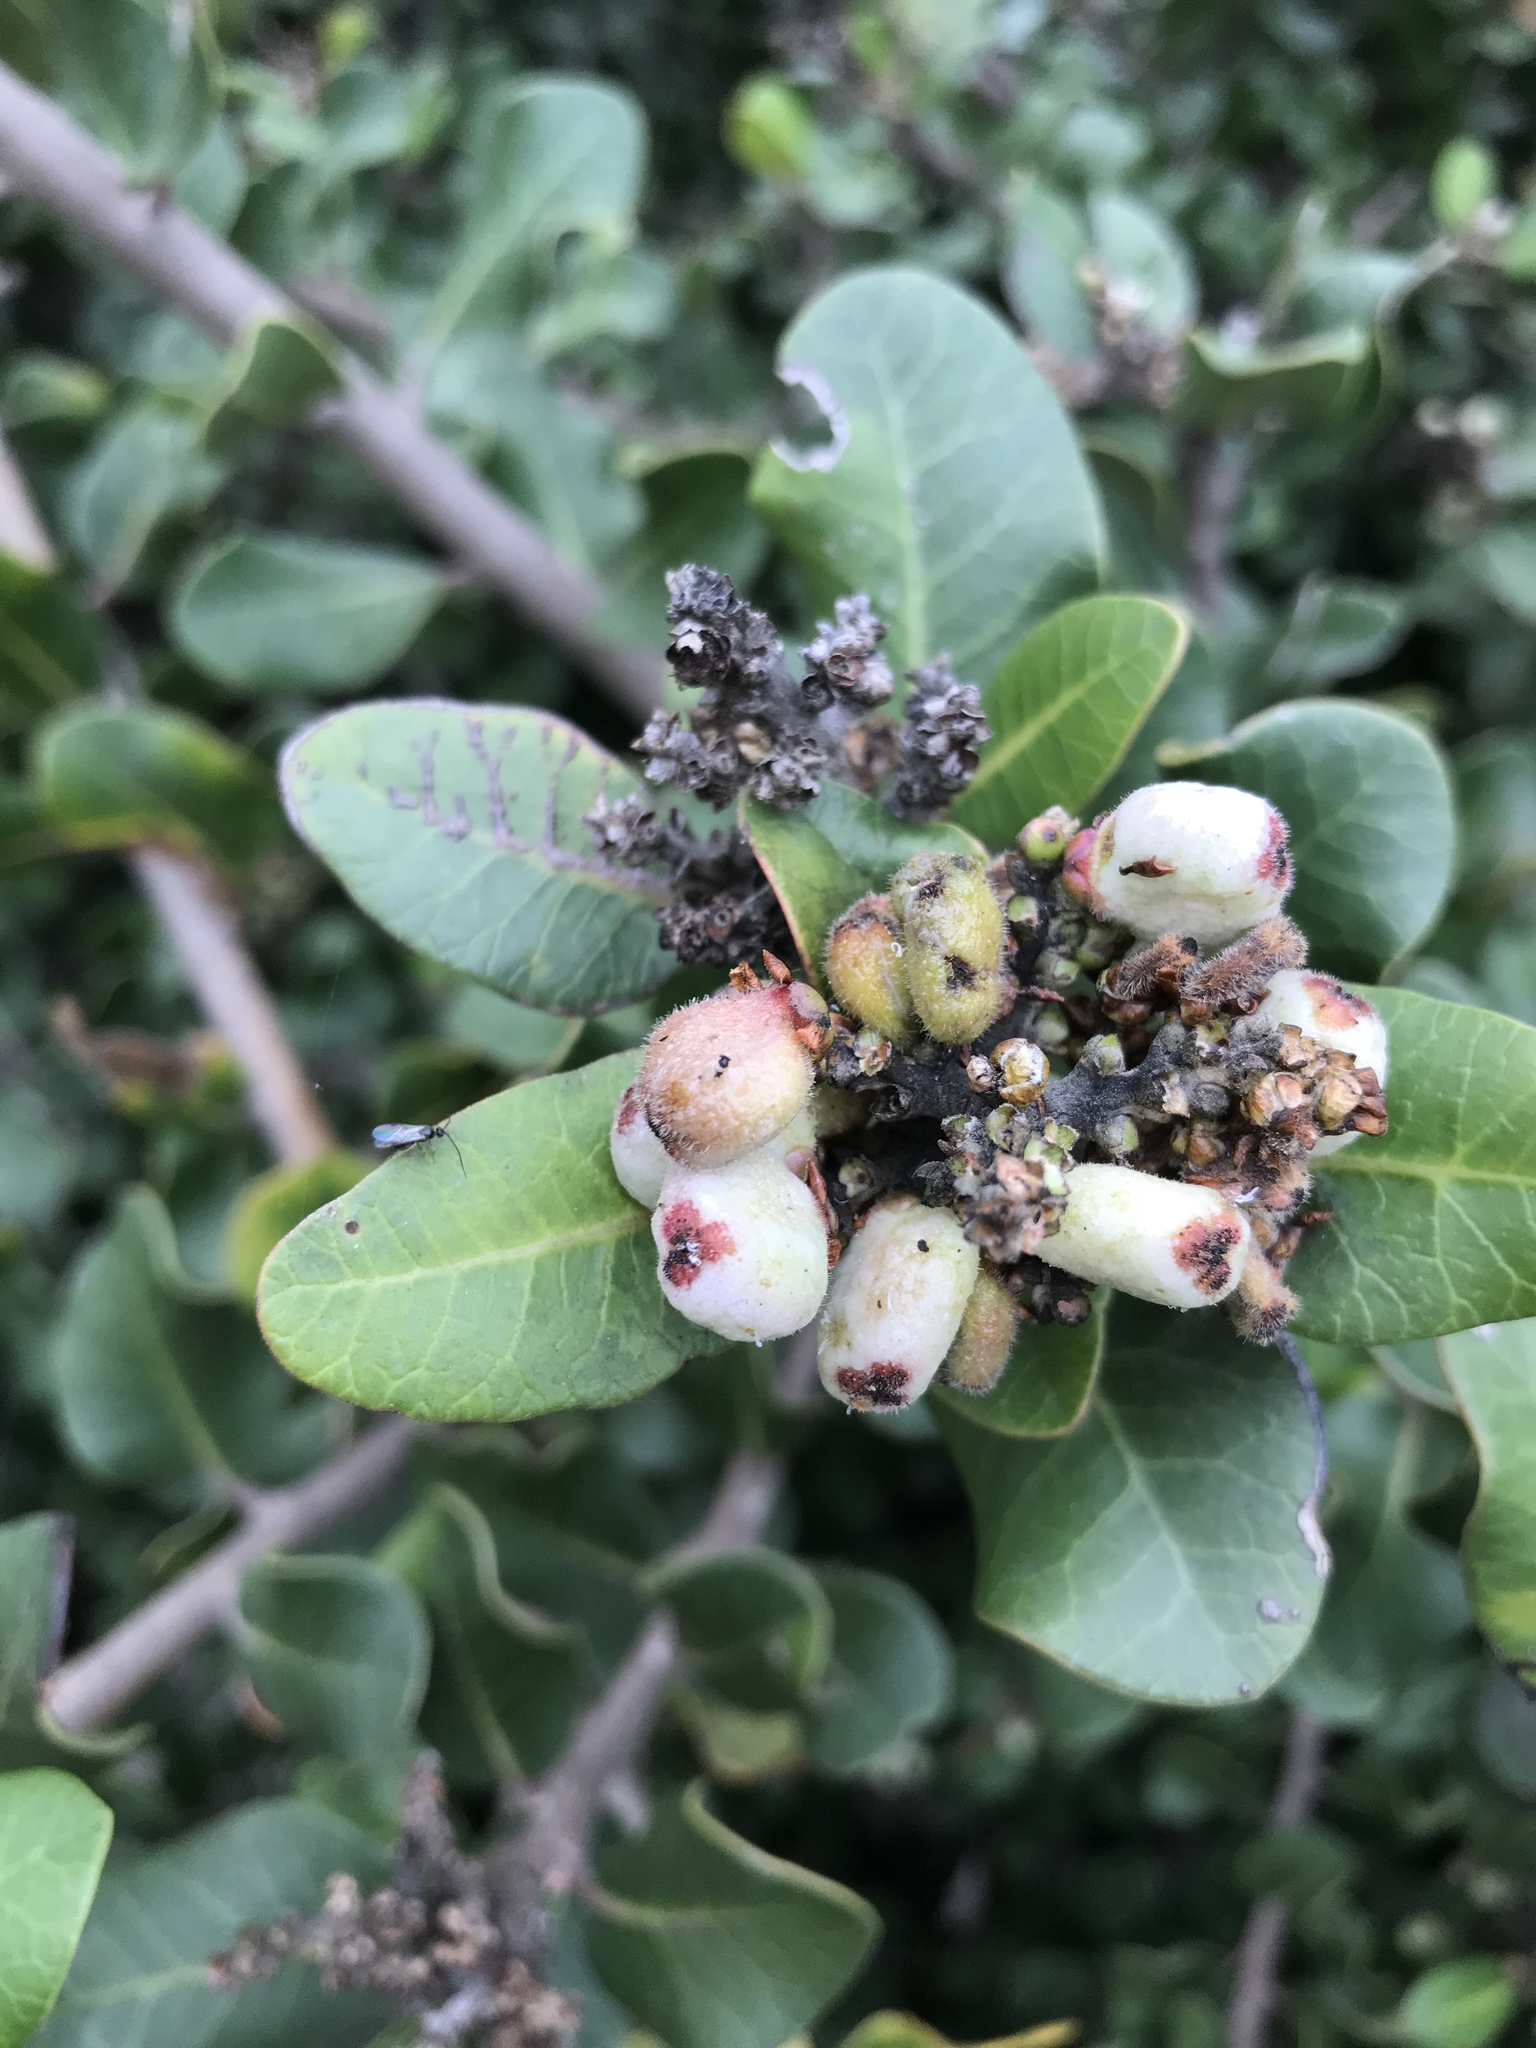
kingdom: Plantae
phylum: Tracheophyta
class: Magnoliopsida
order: Sapindales
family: Anacardiaceae
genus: Rhus
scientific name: Rhus integrifolia
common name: Lemonade sumac
